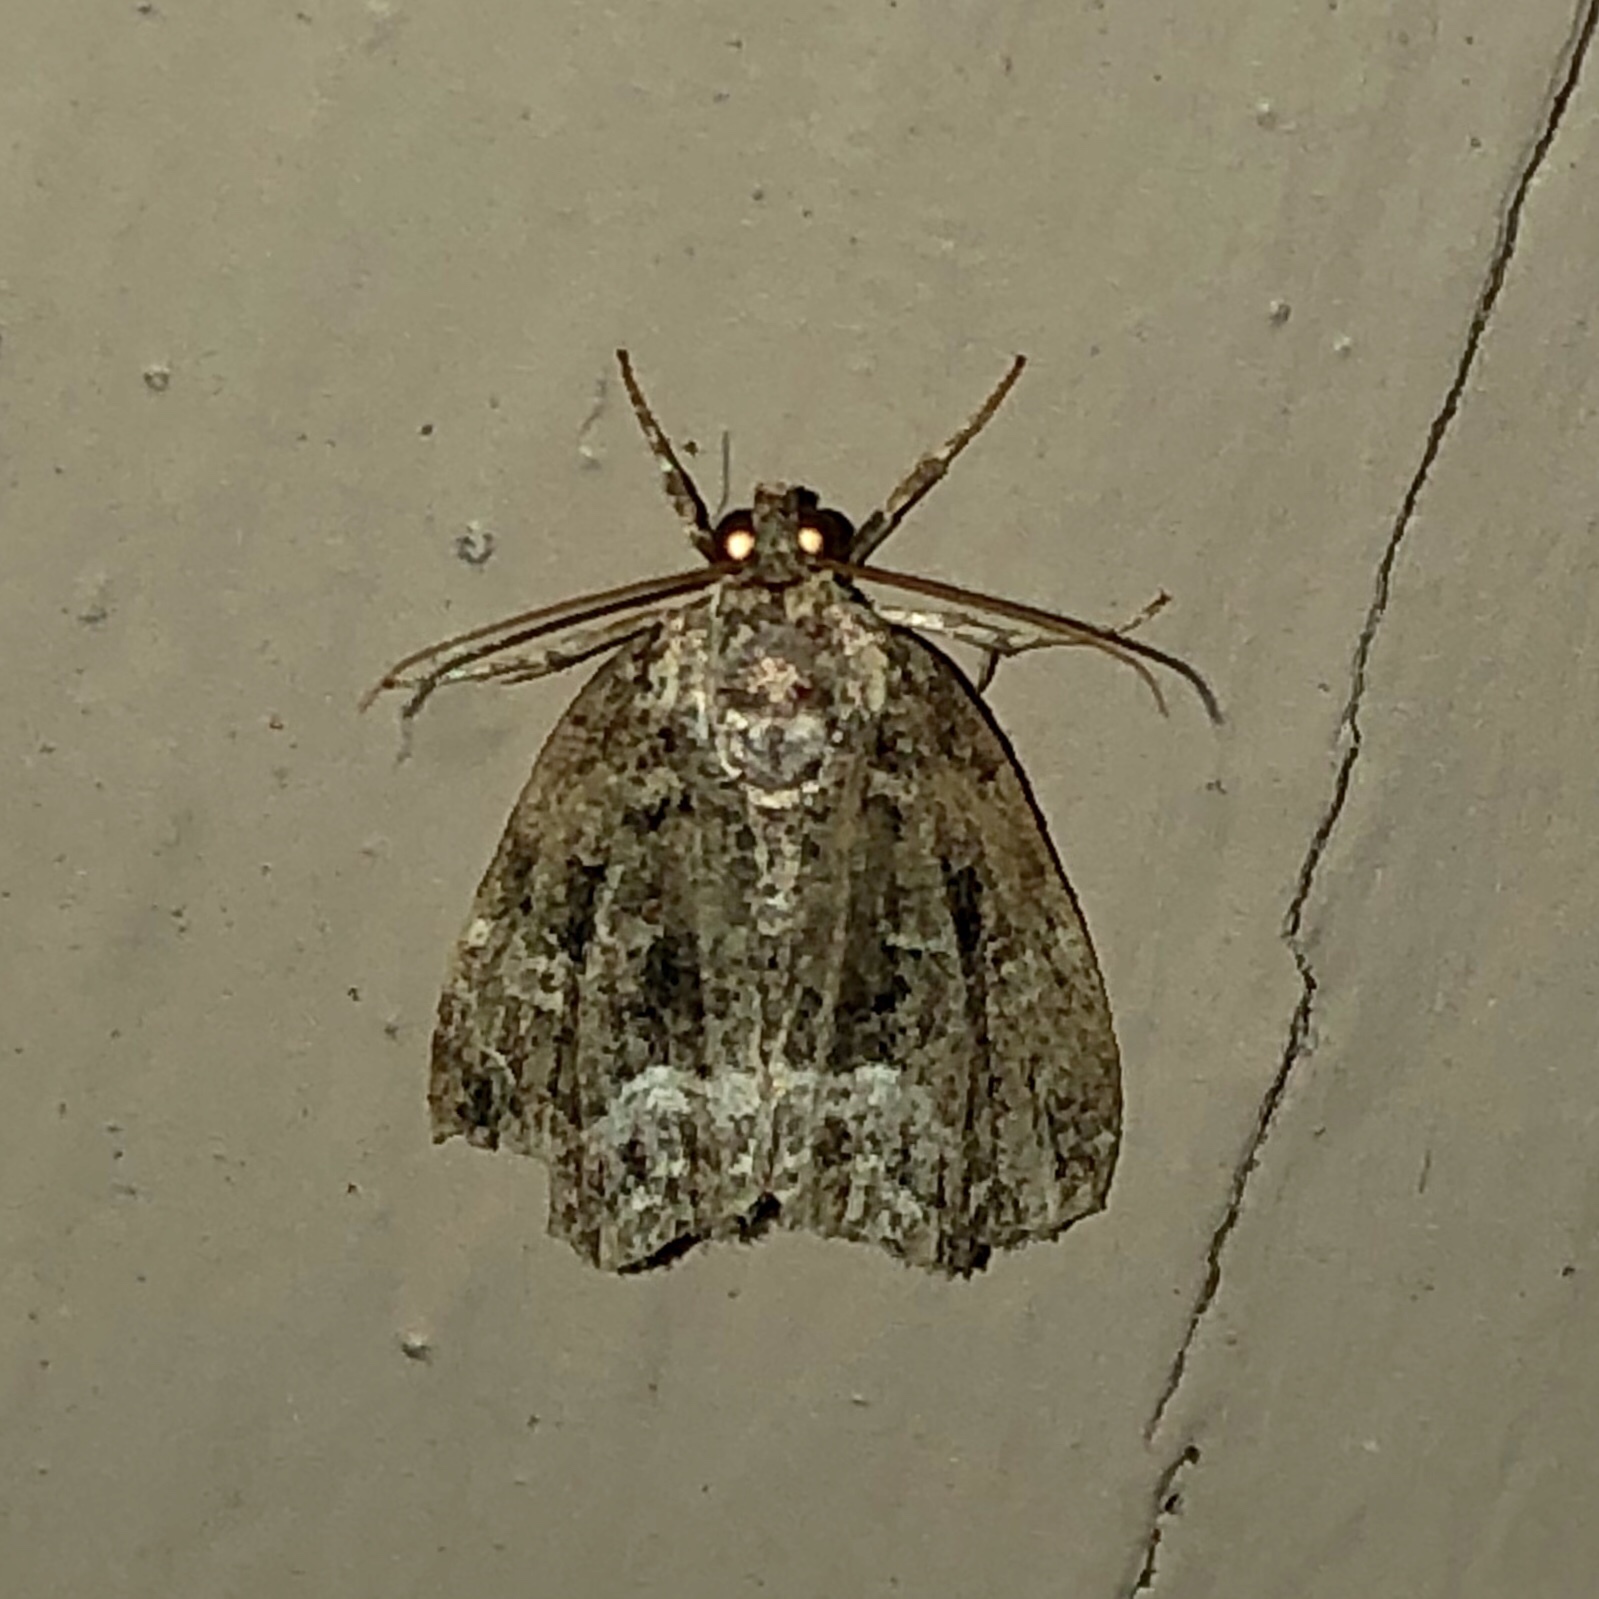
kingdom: Animalia
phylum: Arthropoda
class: Insecta
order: Lepidoptera
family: Noctuidae
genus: Protodeltote
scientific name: Protodeltote muscosula
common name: Large mossy glyph
